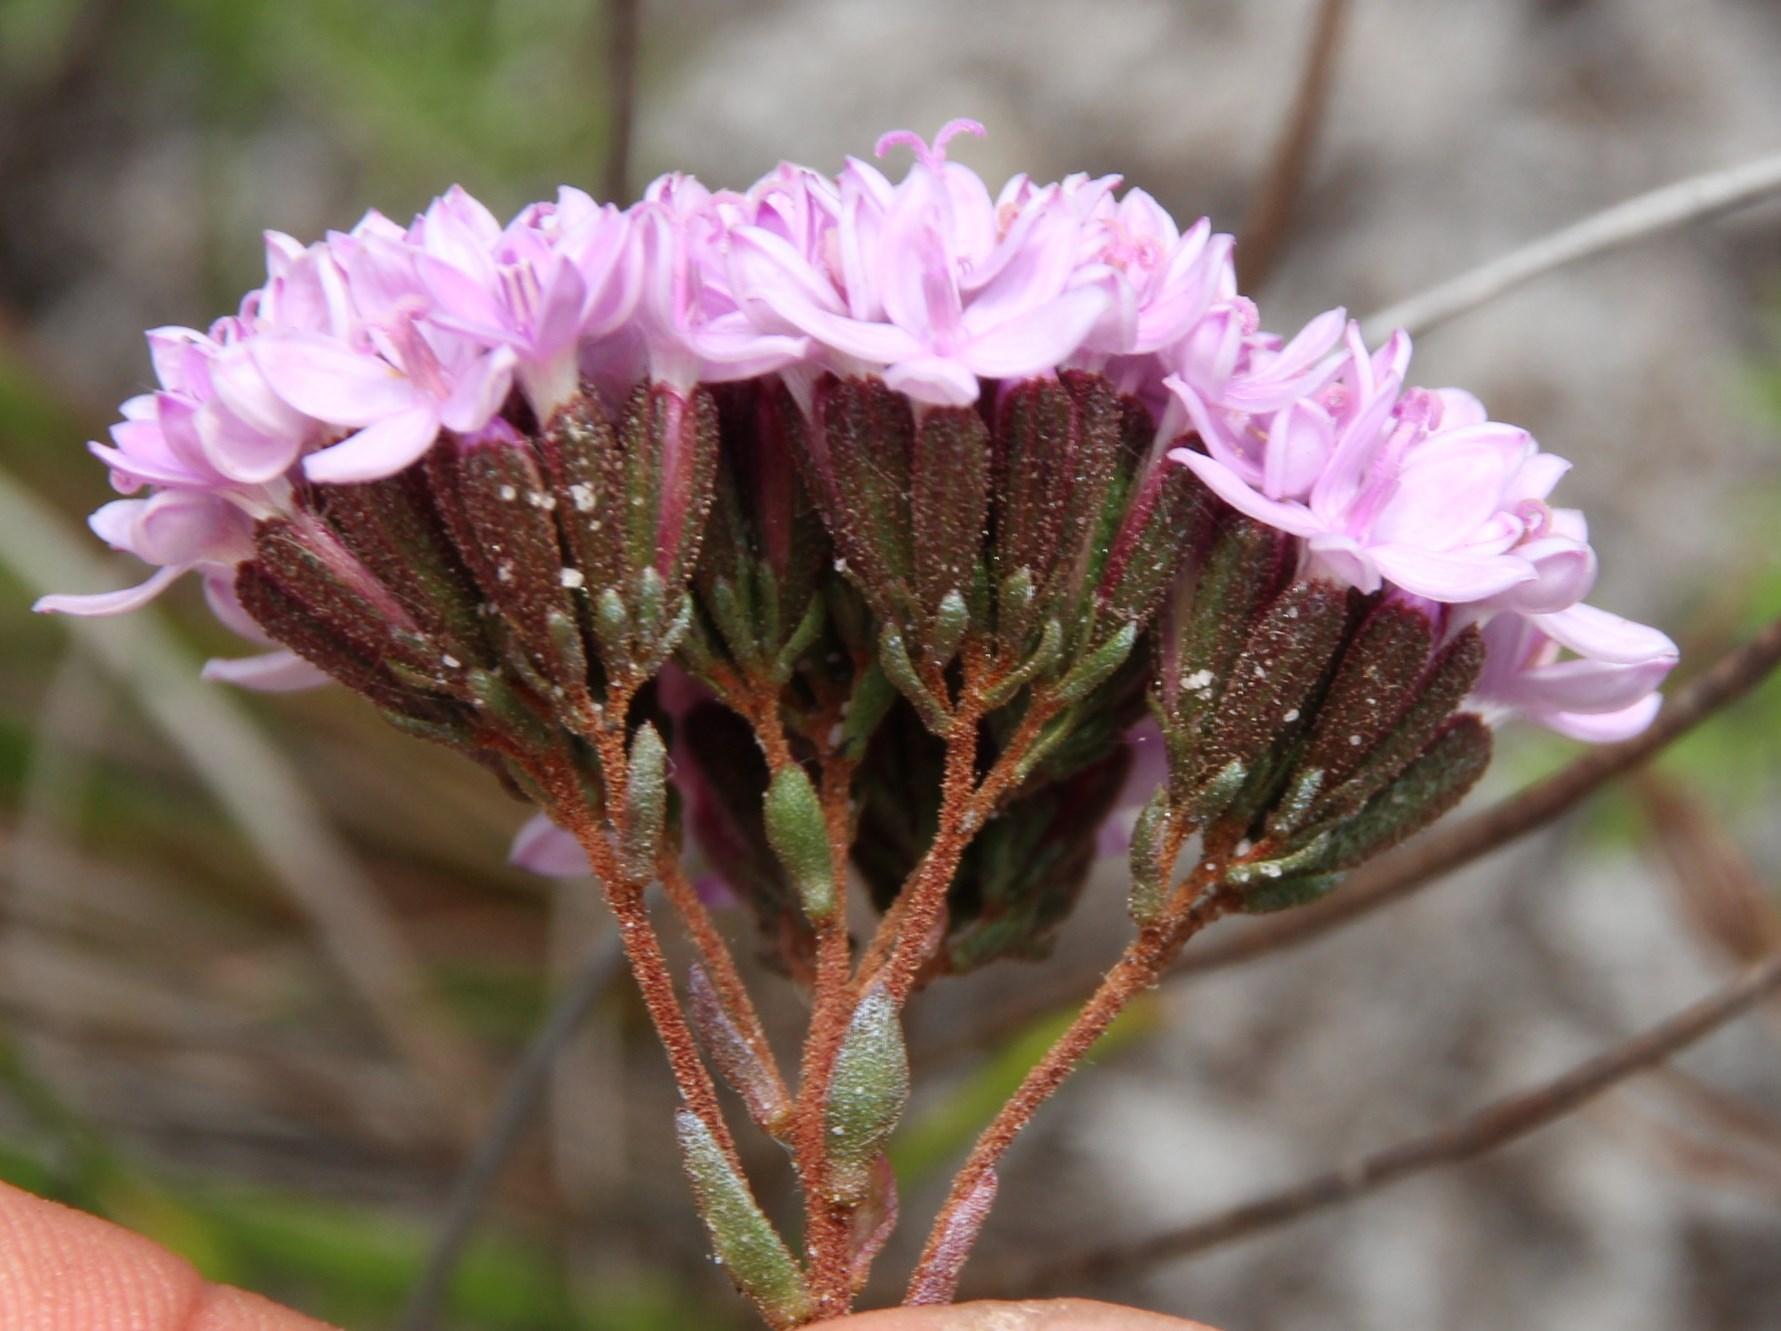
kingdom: Plantae
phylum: Tracheophyta
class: Magnoliopsida
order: Asterales
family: Asteraceae
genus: Corymbium
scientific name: Corymbium africanum
